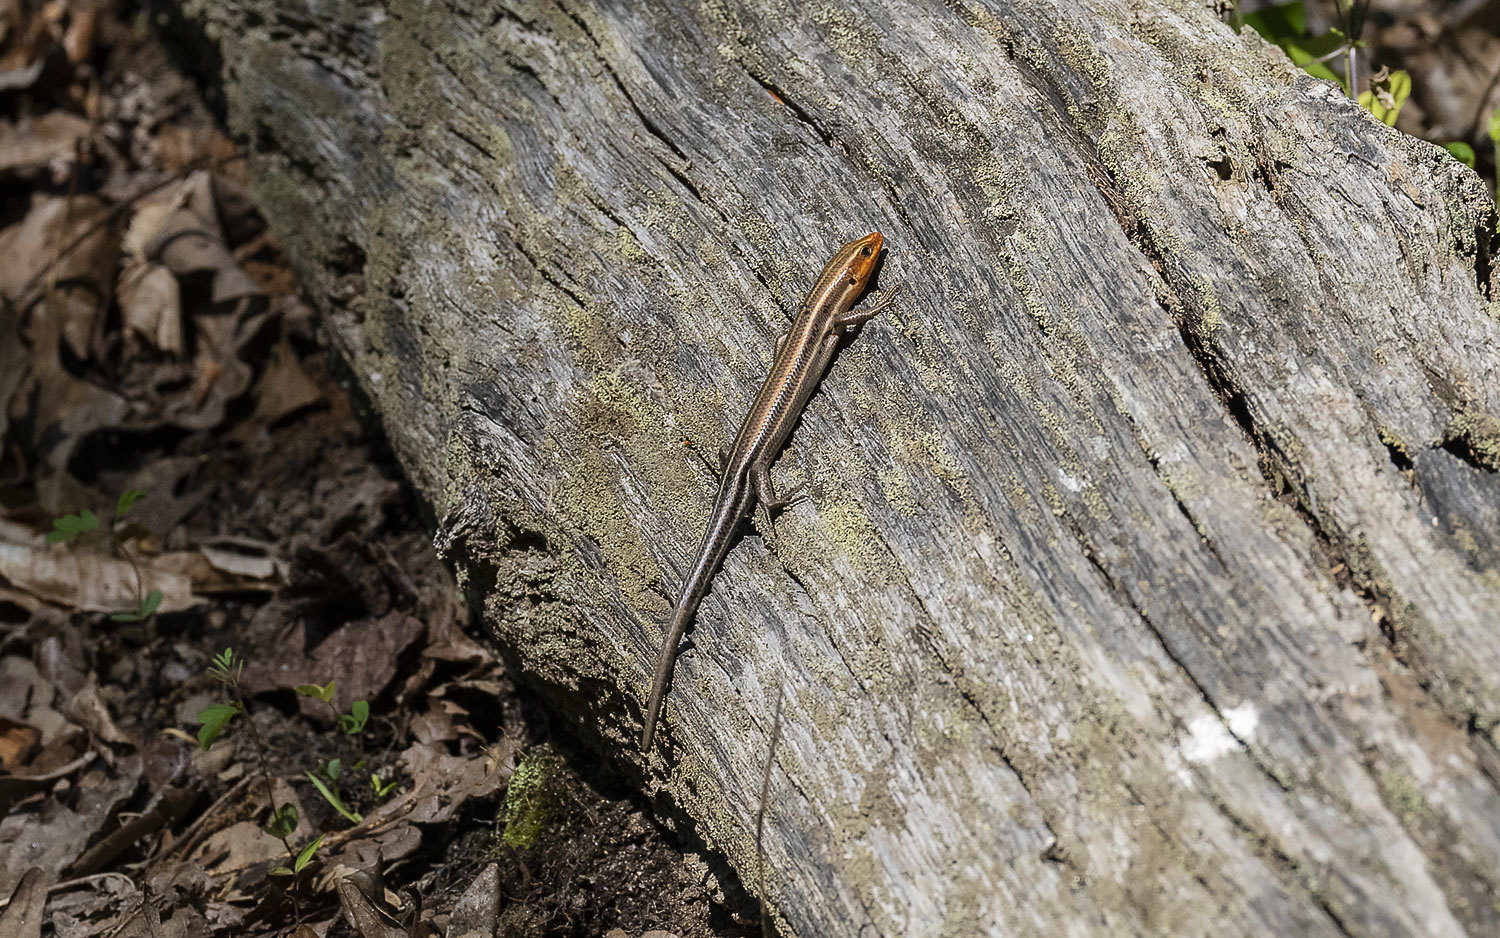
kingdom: Animalia
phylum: Chordata
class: Squamata
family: Scincidae
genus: Plestiodon
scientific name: Plestiodon fasciatus
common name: Five-lined skink
